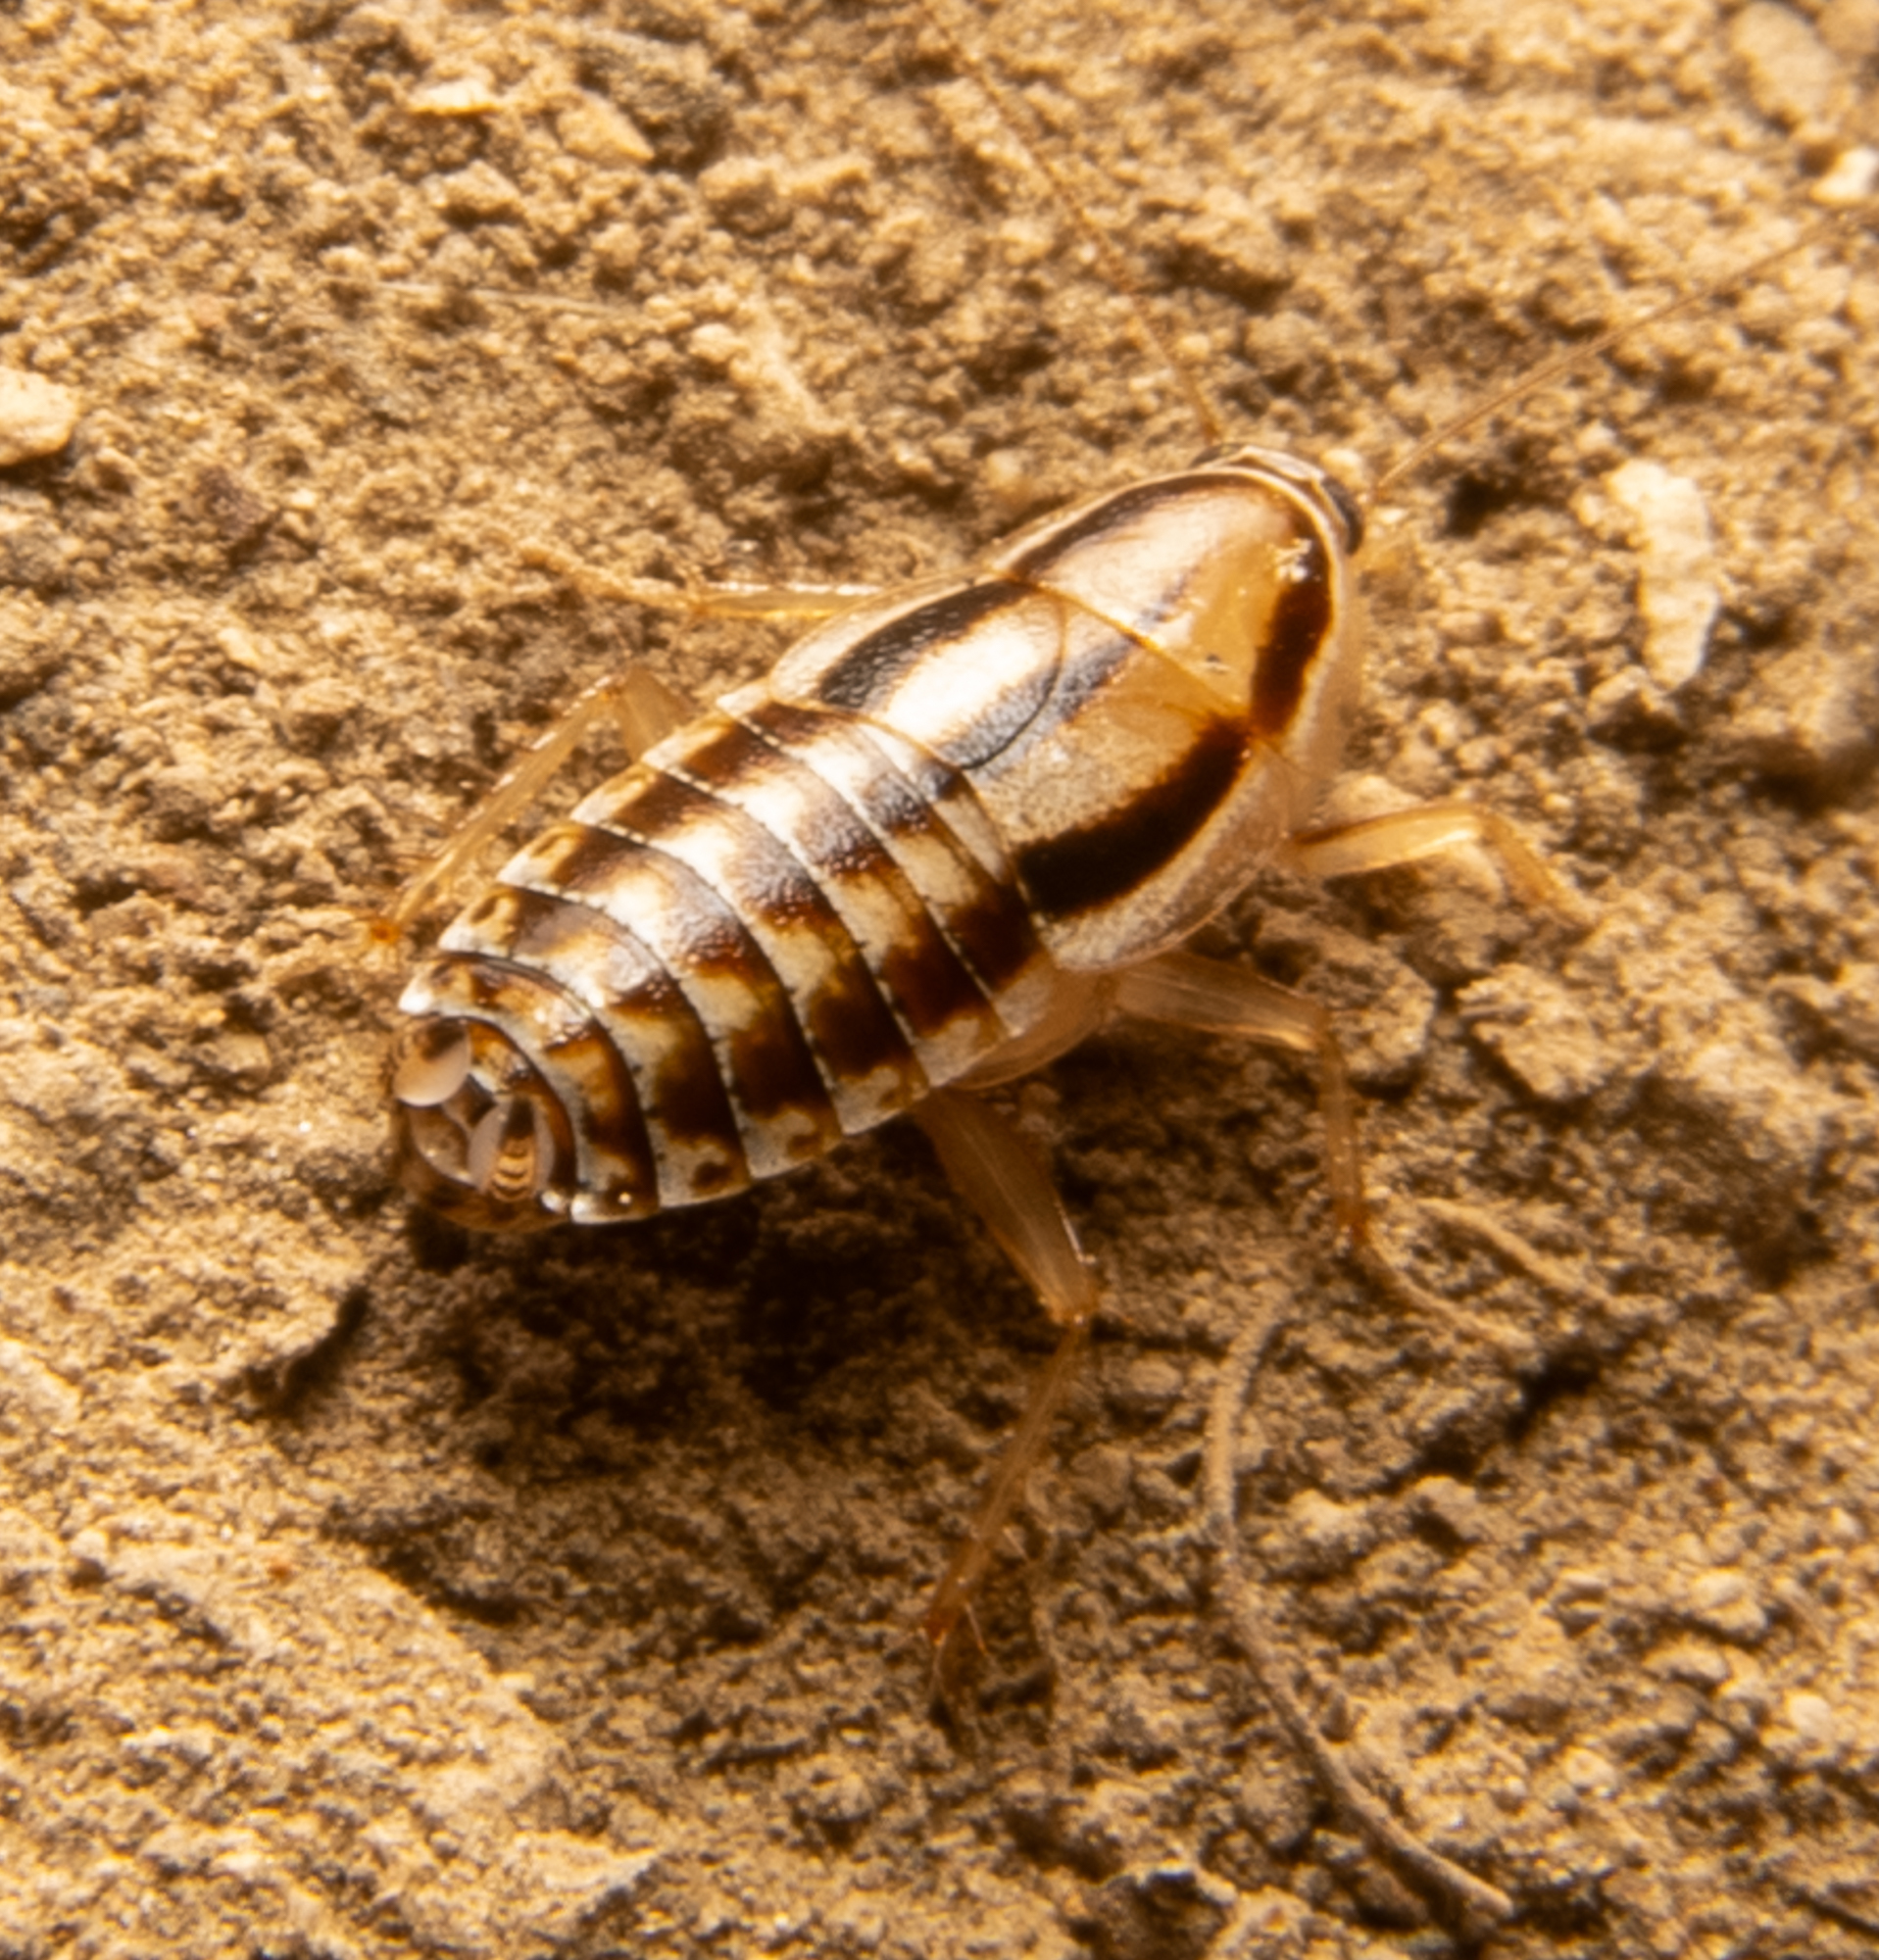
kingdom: Animalia
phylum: Arthropoda
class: Insecta
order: Blattodea
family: Ectobiidae
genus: Luridiblatta
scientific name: Luridiblatta trivittata
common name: Three-lined cockroach
